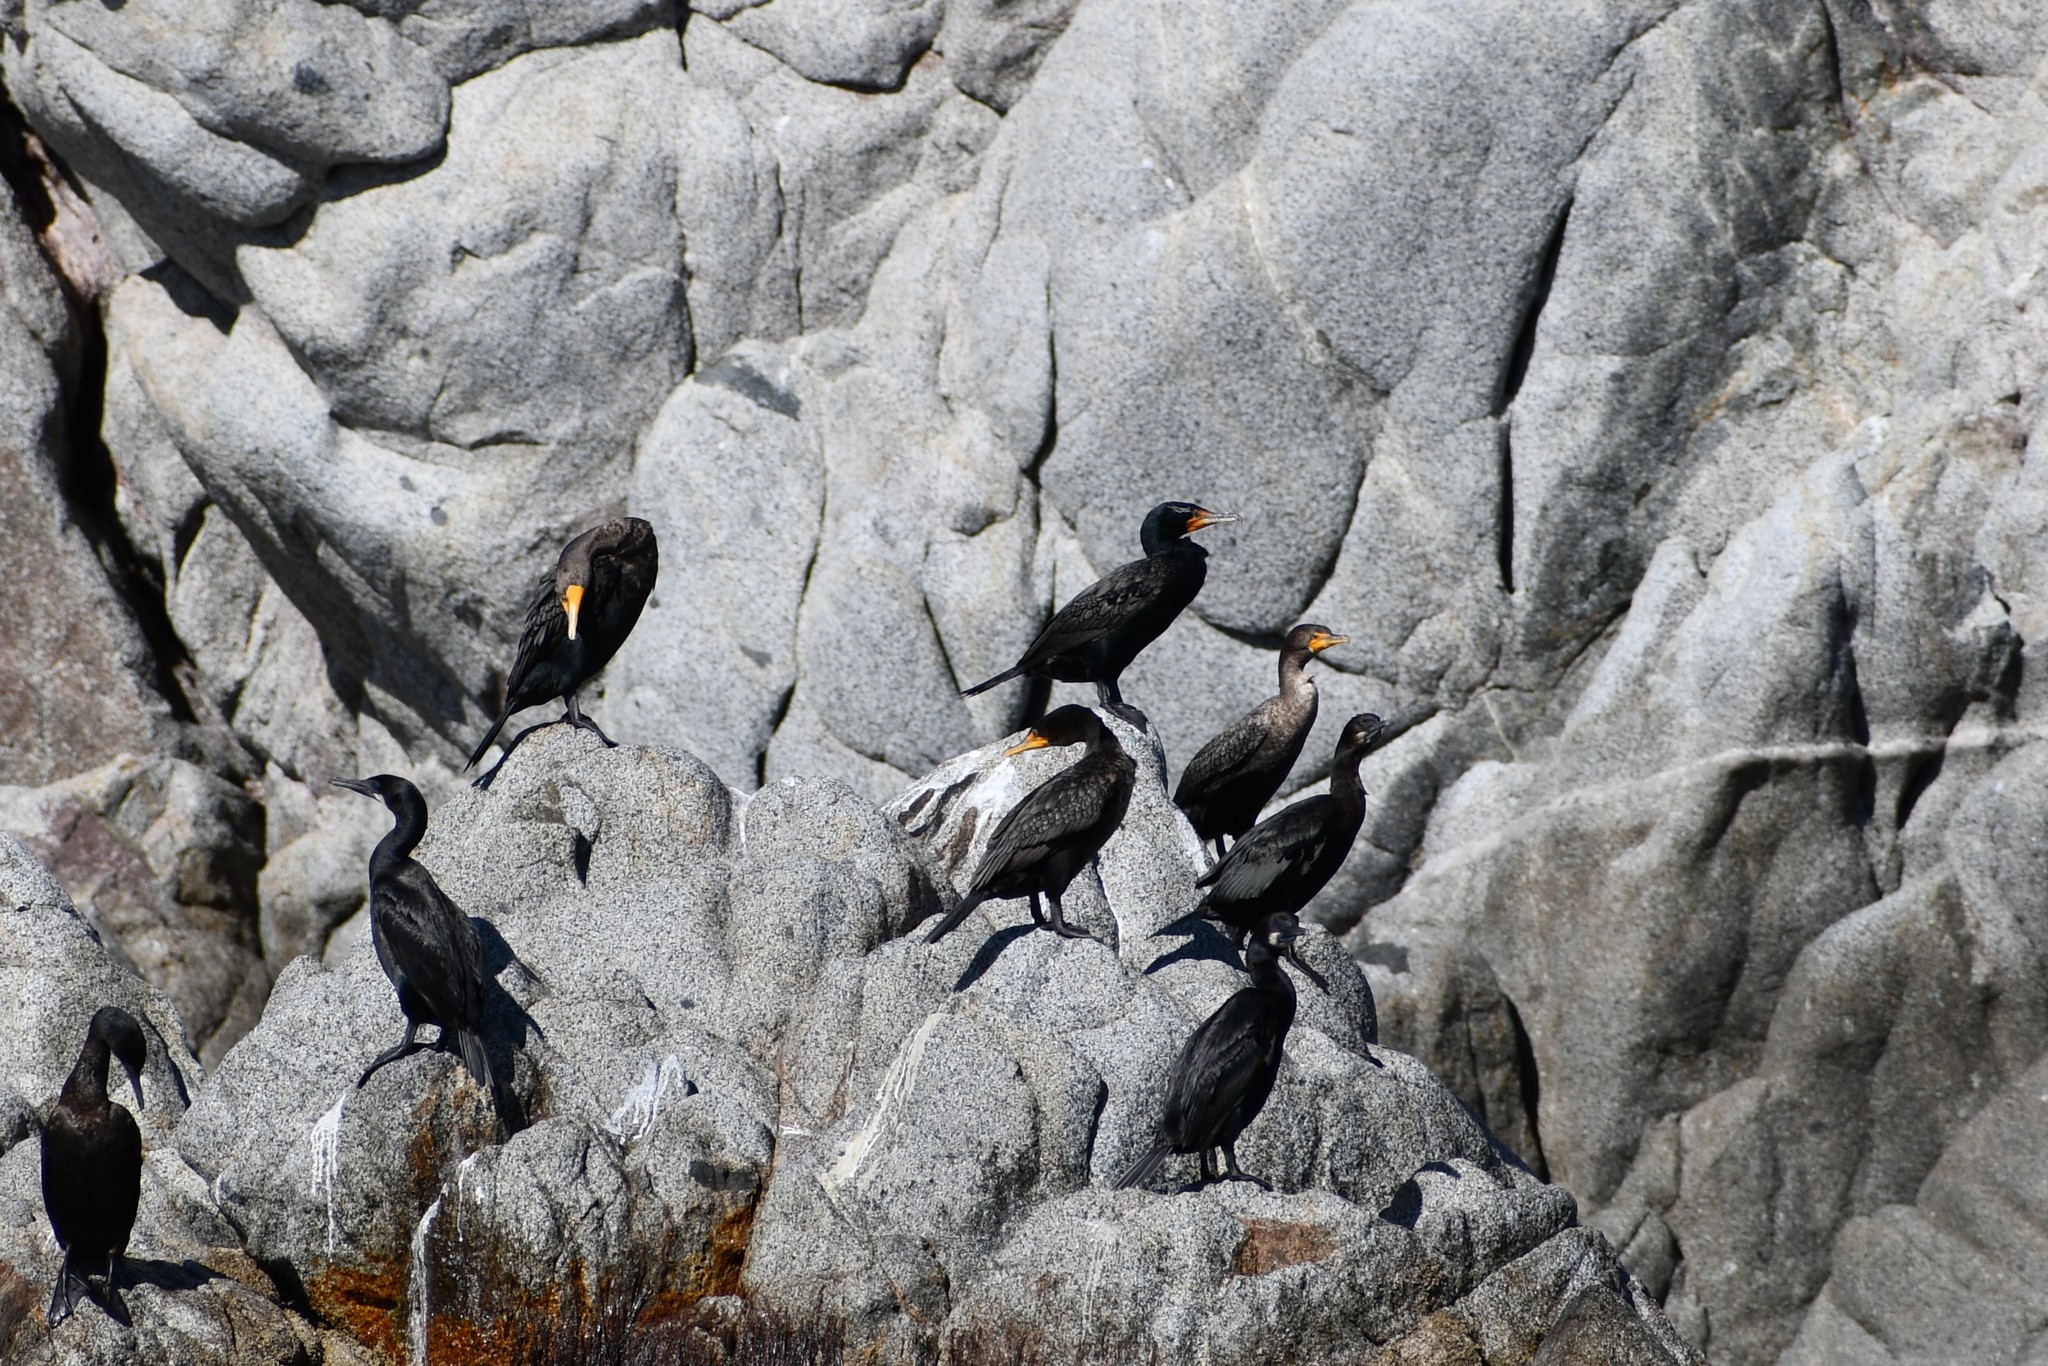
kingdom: Animalia
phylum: Chordata
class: Aves
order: Suliformes
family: Phalacrocoracidae
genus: Phalacrocorax
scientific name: Phalacrocorax auritus
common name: Double-crested cormorant
